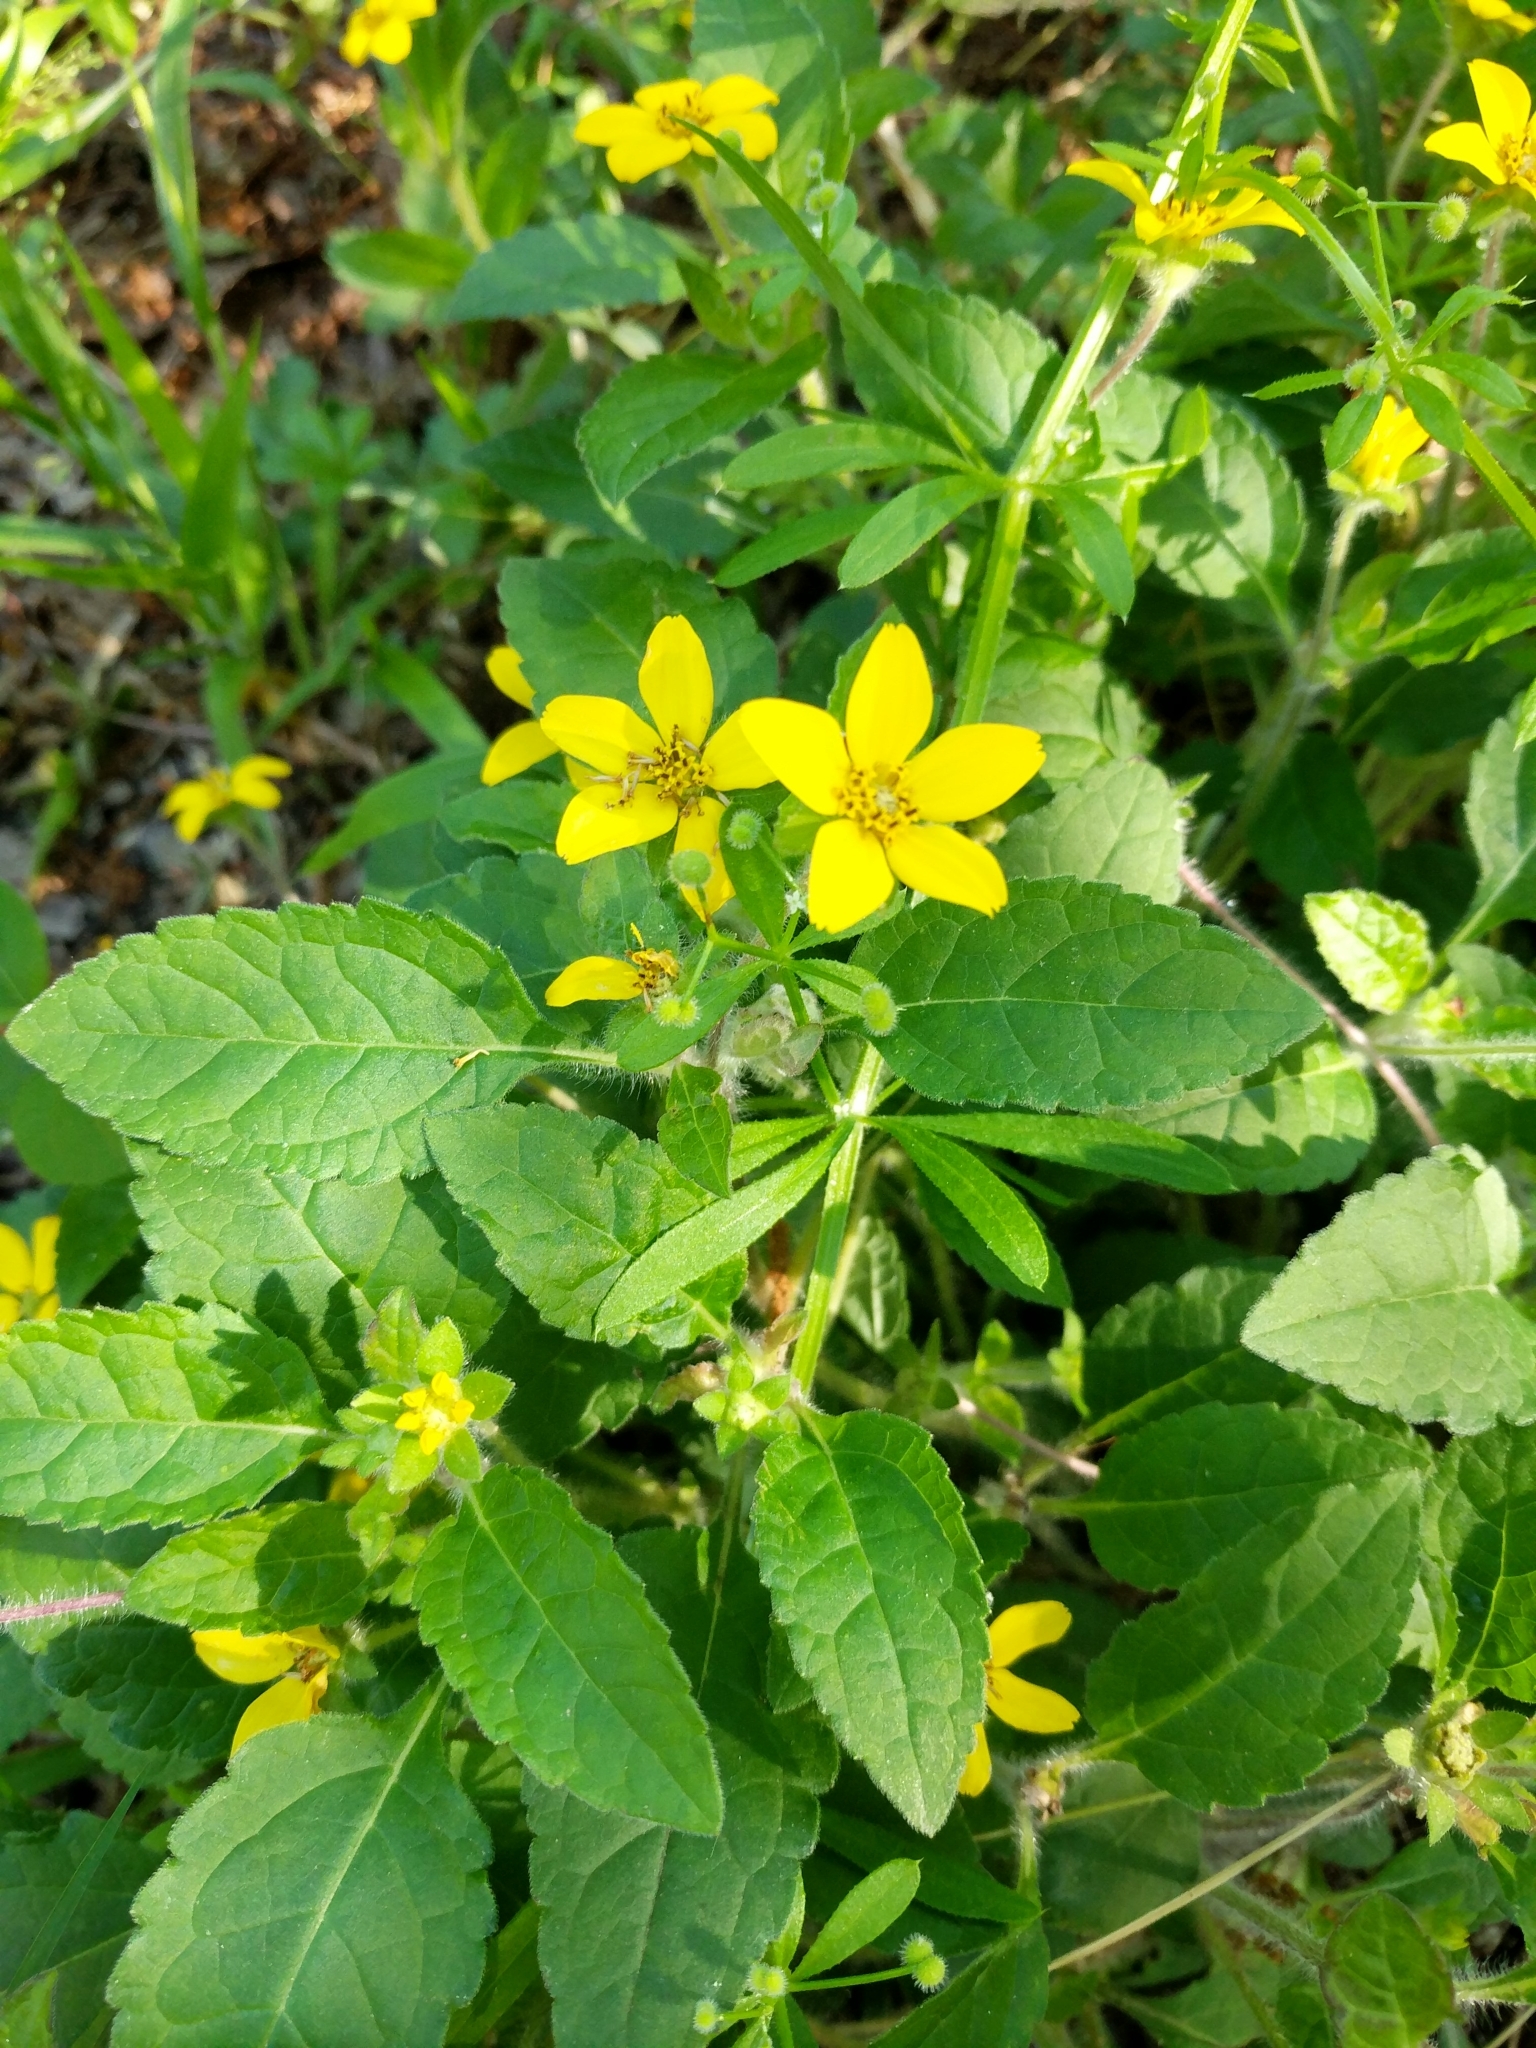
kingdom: Plantae
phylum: Tracheophyta
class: Magnoliopsida
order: Asterales
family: Asteraceae
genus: Chrysogonum
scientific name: Chrysogonum virginianum
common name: Golden-knee
